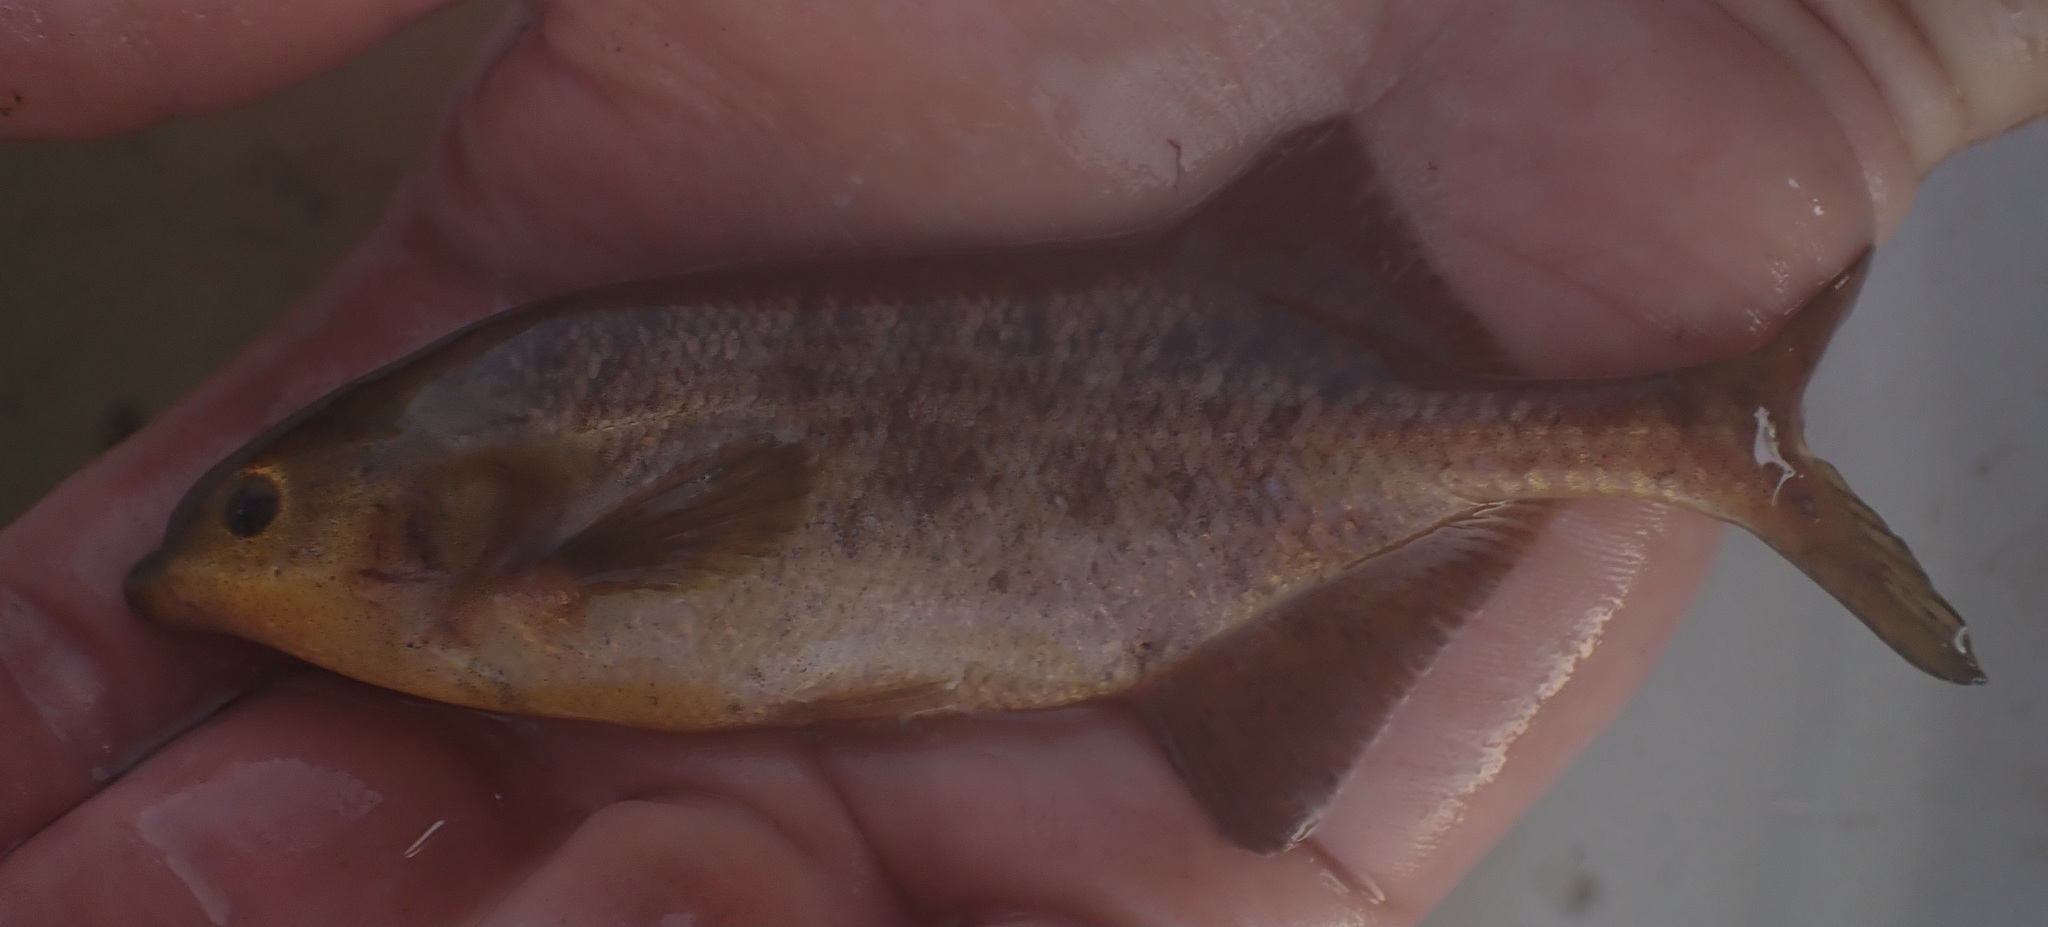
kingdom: Animalia
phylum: Chordata
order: Osteoglossiformes
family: Mormyridae
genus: Marcusenius
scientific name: Marcusenius altisambesi
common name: Bulldog
